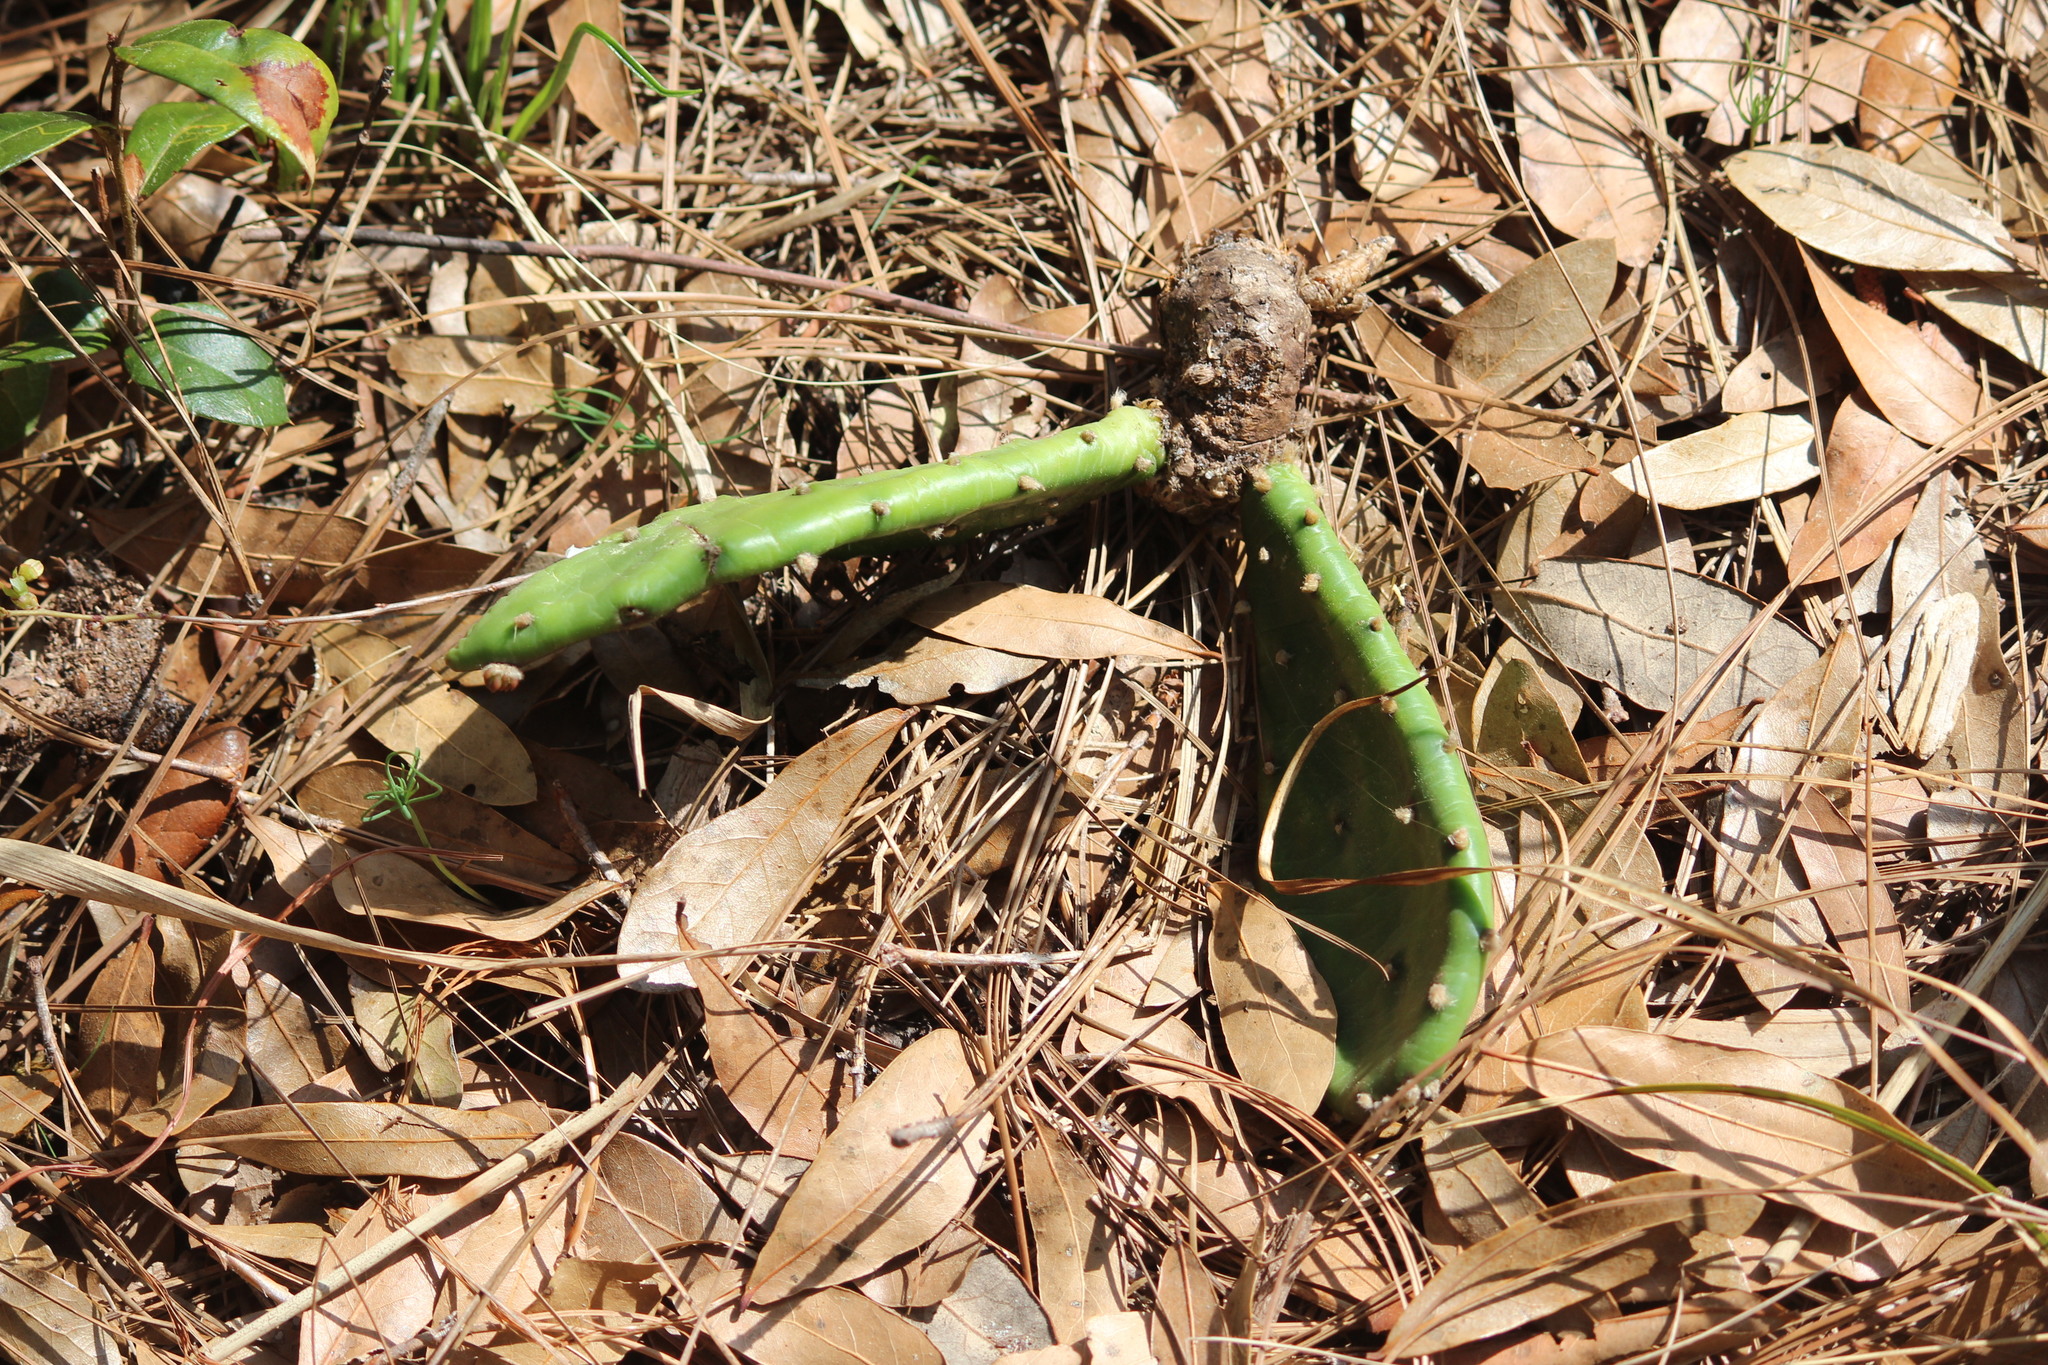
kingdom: Plantae
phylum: Tracheophyta
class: Magnoliopsida
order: Caryophyllales
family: Cactaceae
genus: Opuntia
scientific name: Opuntia mesacantha
